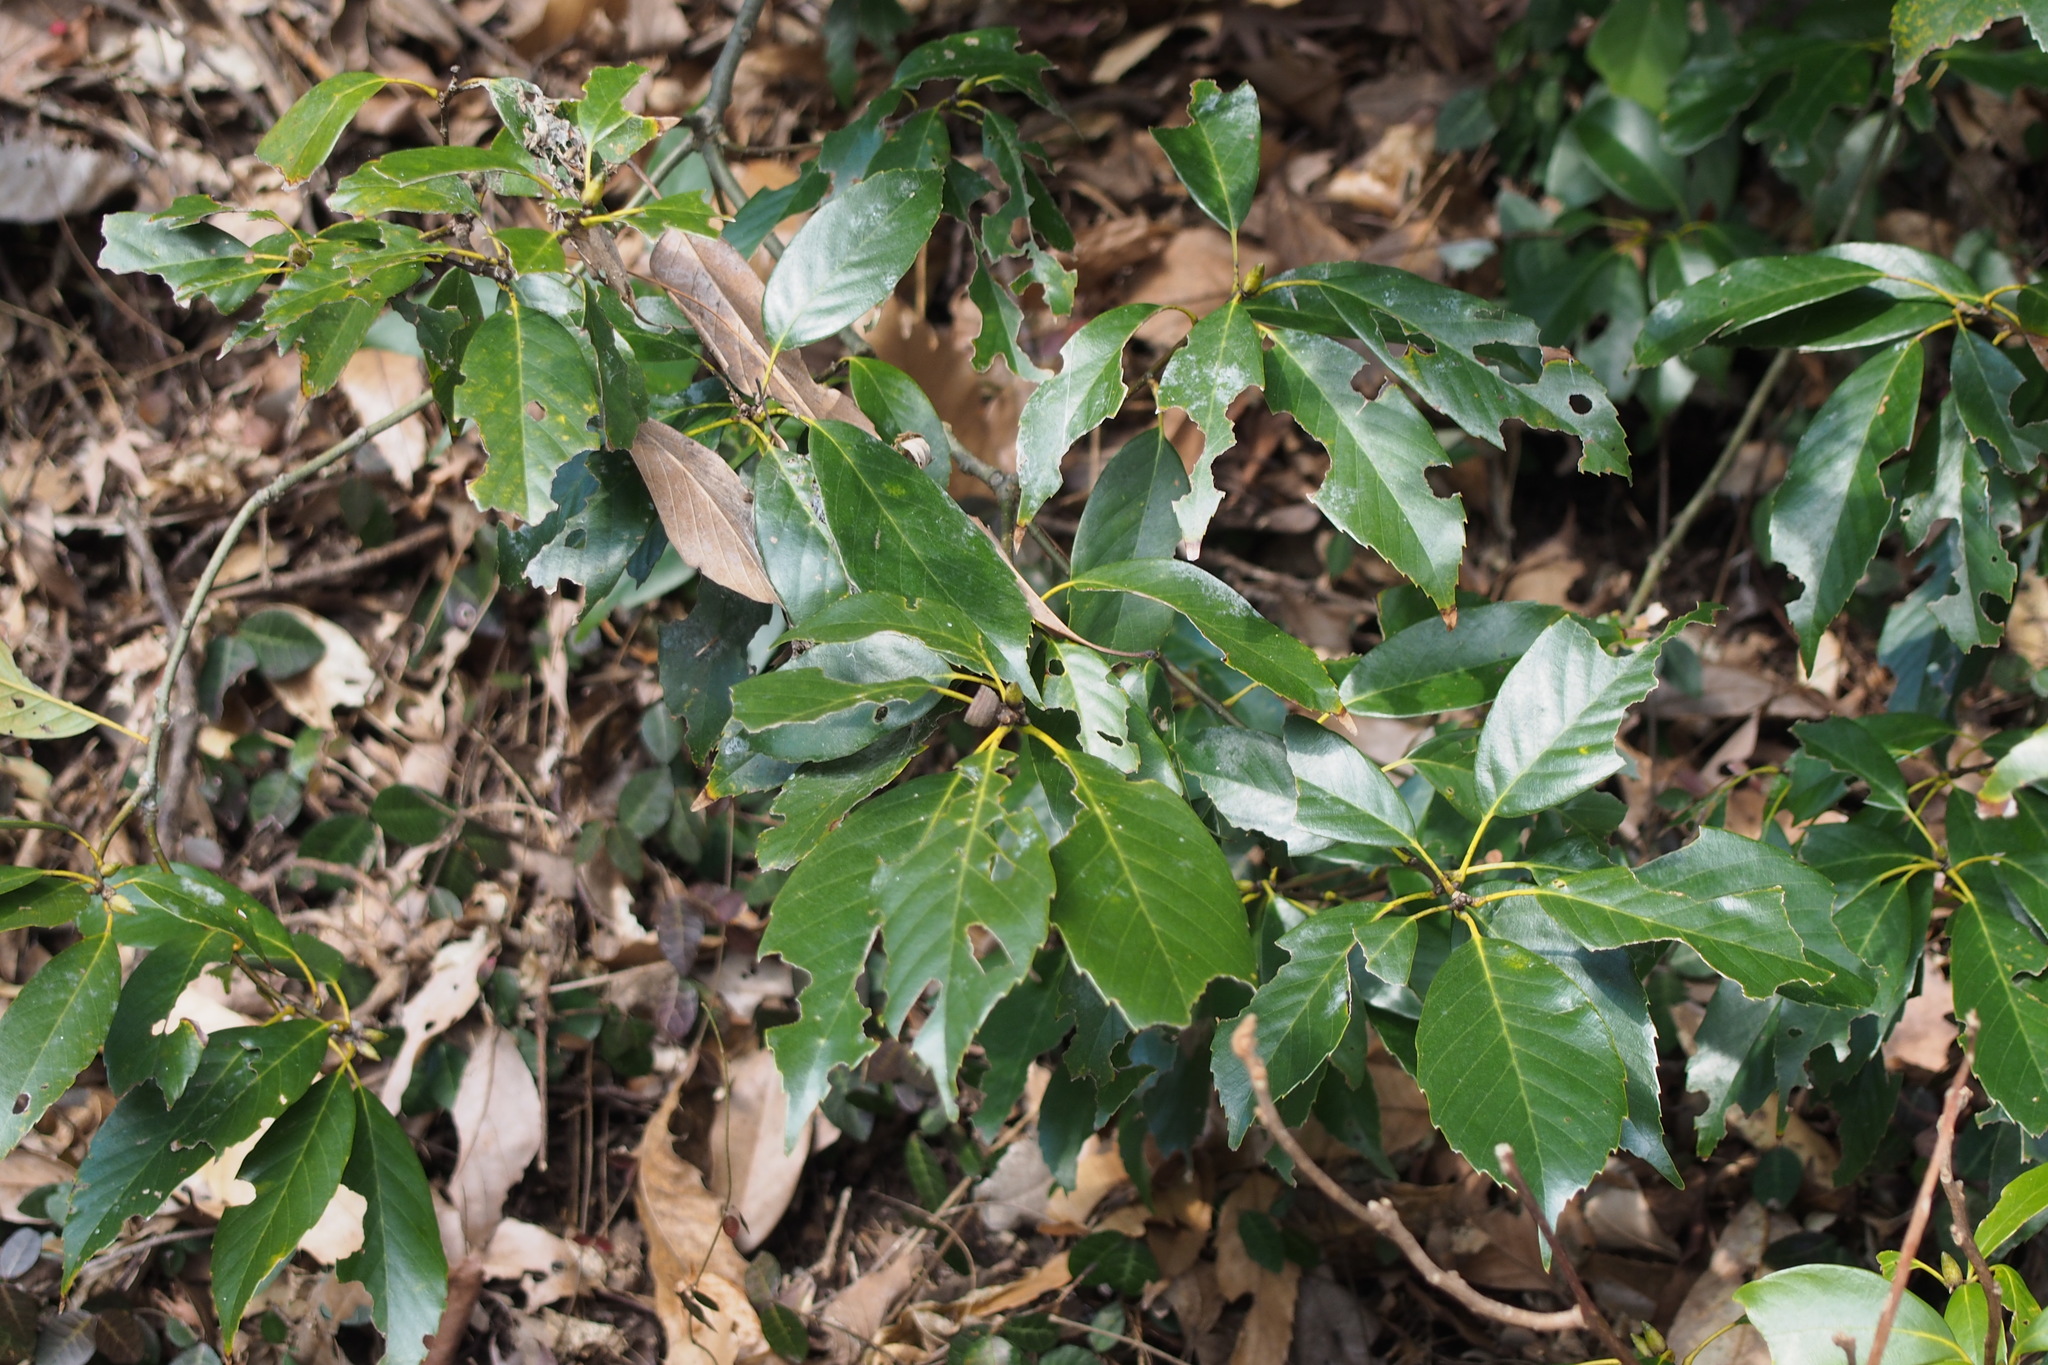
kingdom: Plantae
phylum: Tracheophyta
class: Magnoliopsida
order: Fagales
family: Fagaceae
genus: Quercus
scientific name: Quercus glauca
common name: Ring-cup oak
